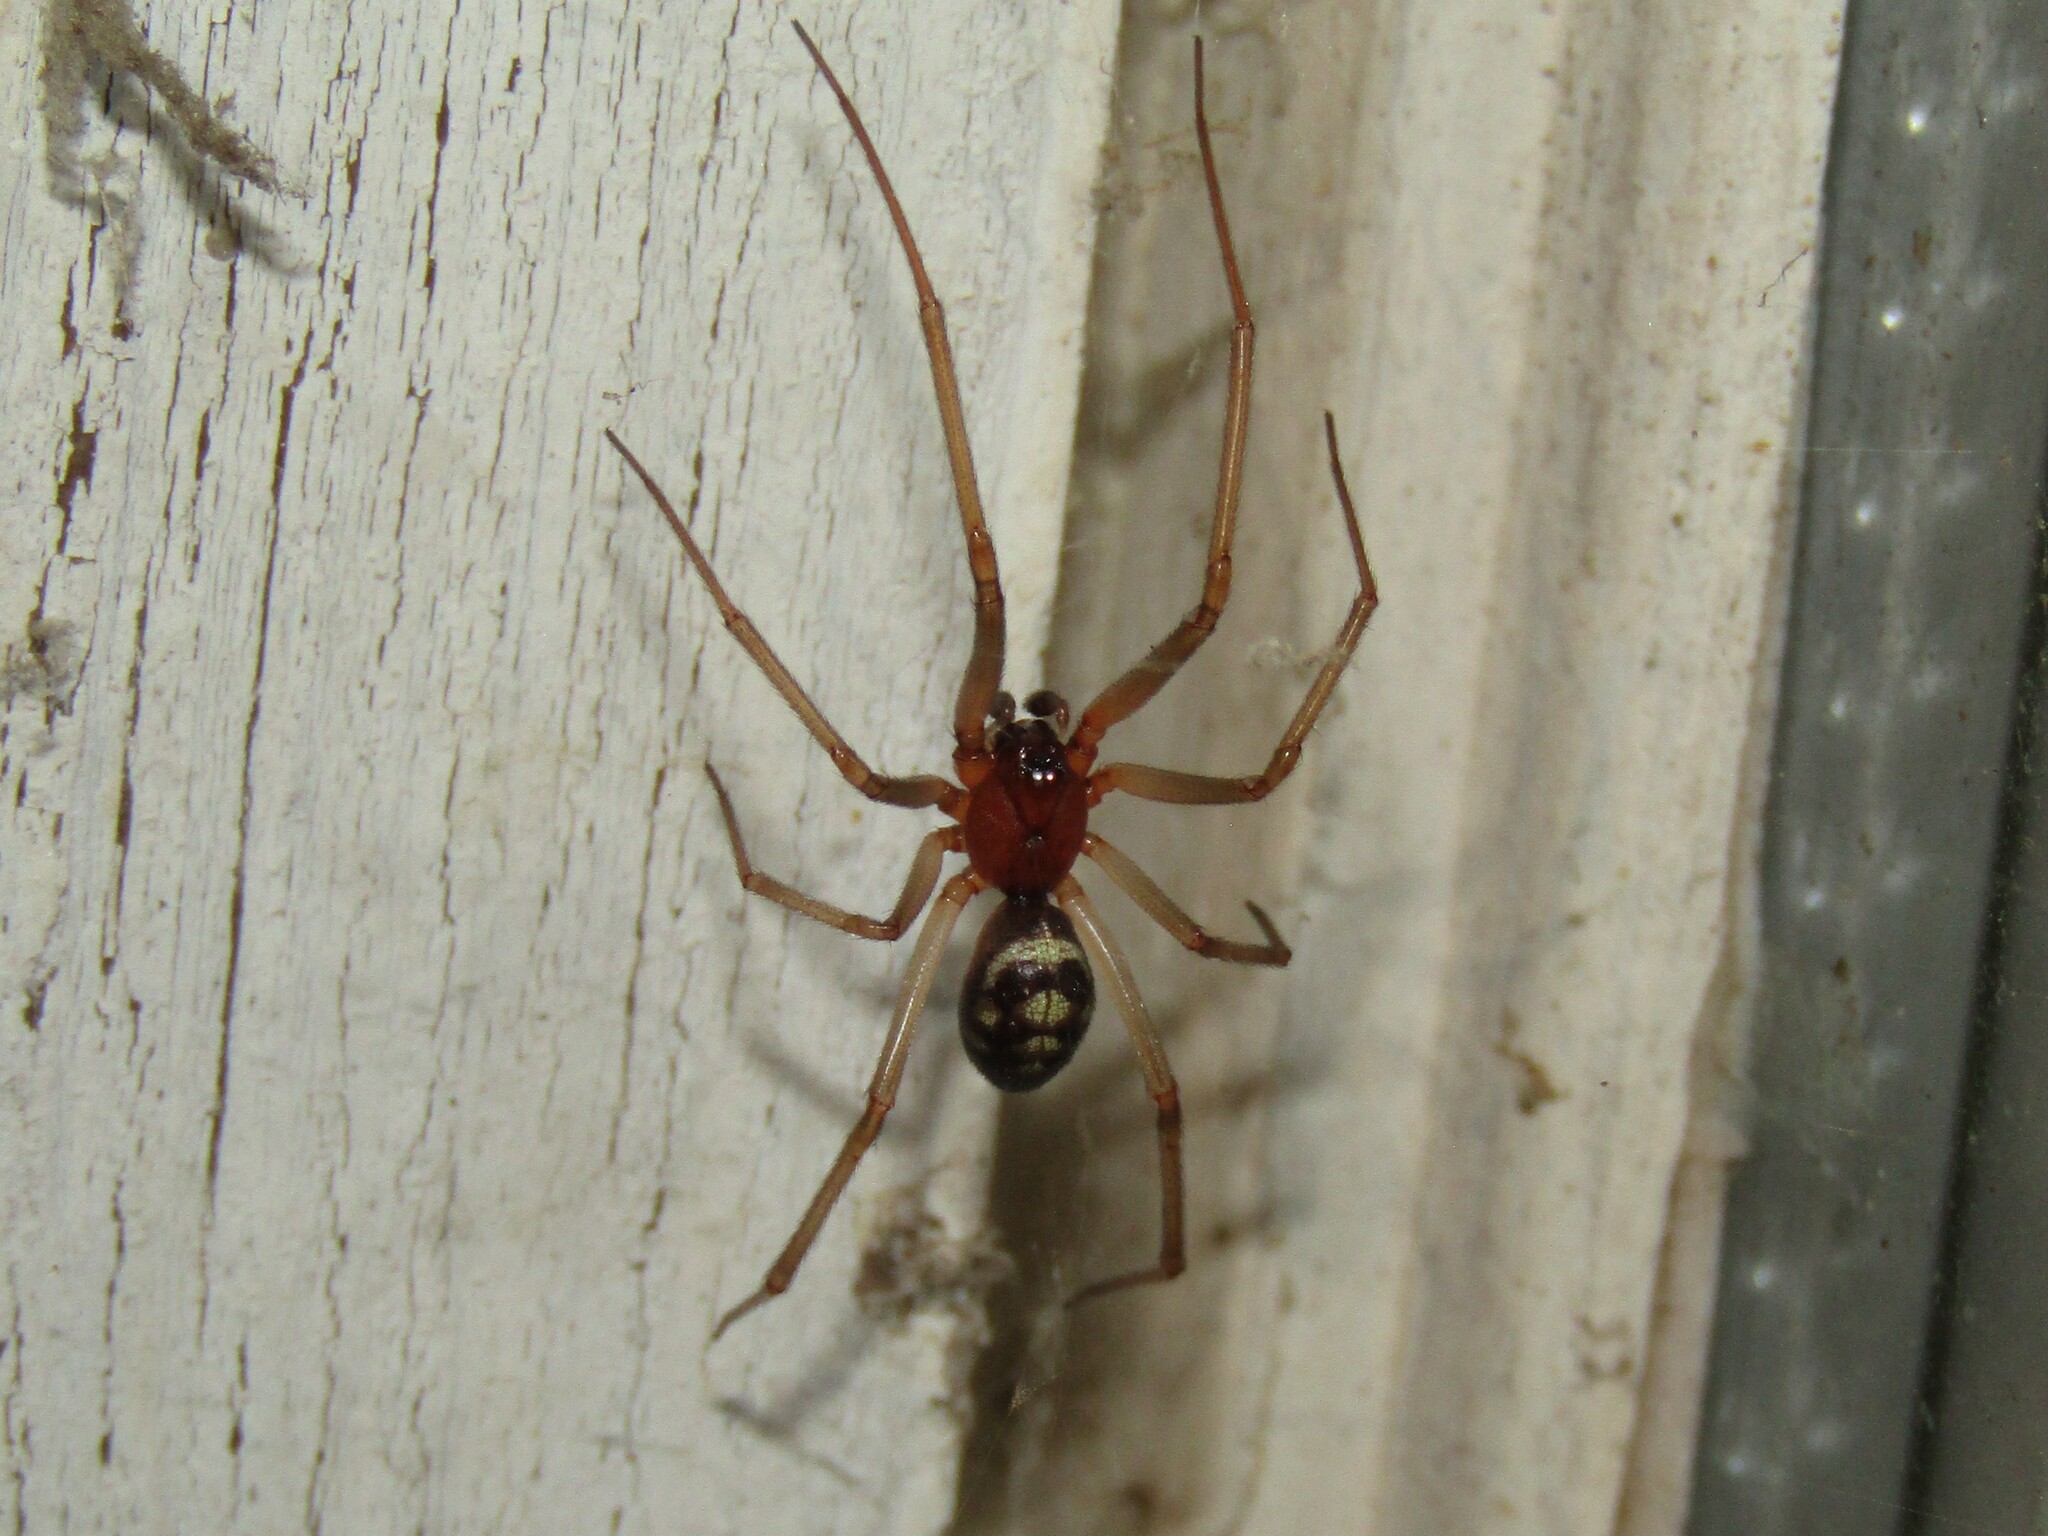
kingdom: Animalia
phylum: Arthropoda
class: Arachnida
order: Araneae
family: Theridiidae
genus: Steatoda
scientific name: Steatoda grossa
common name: False black widow
